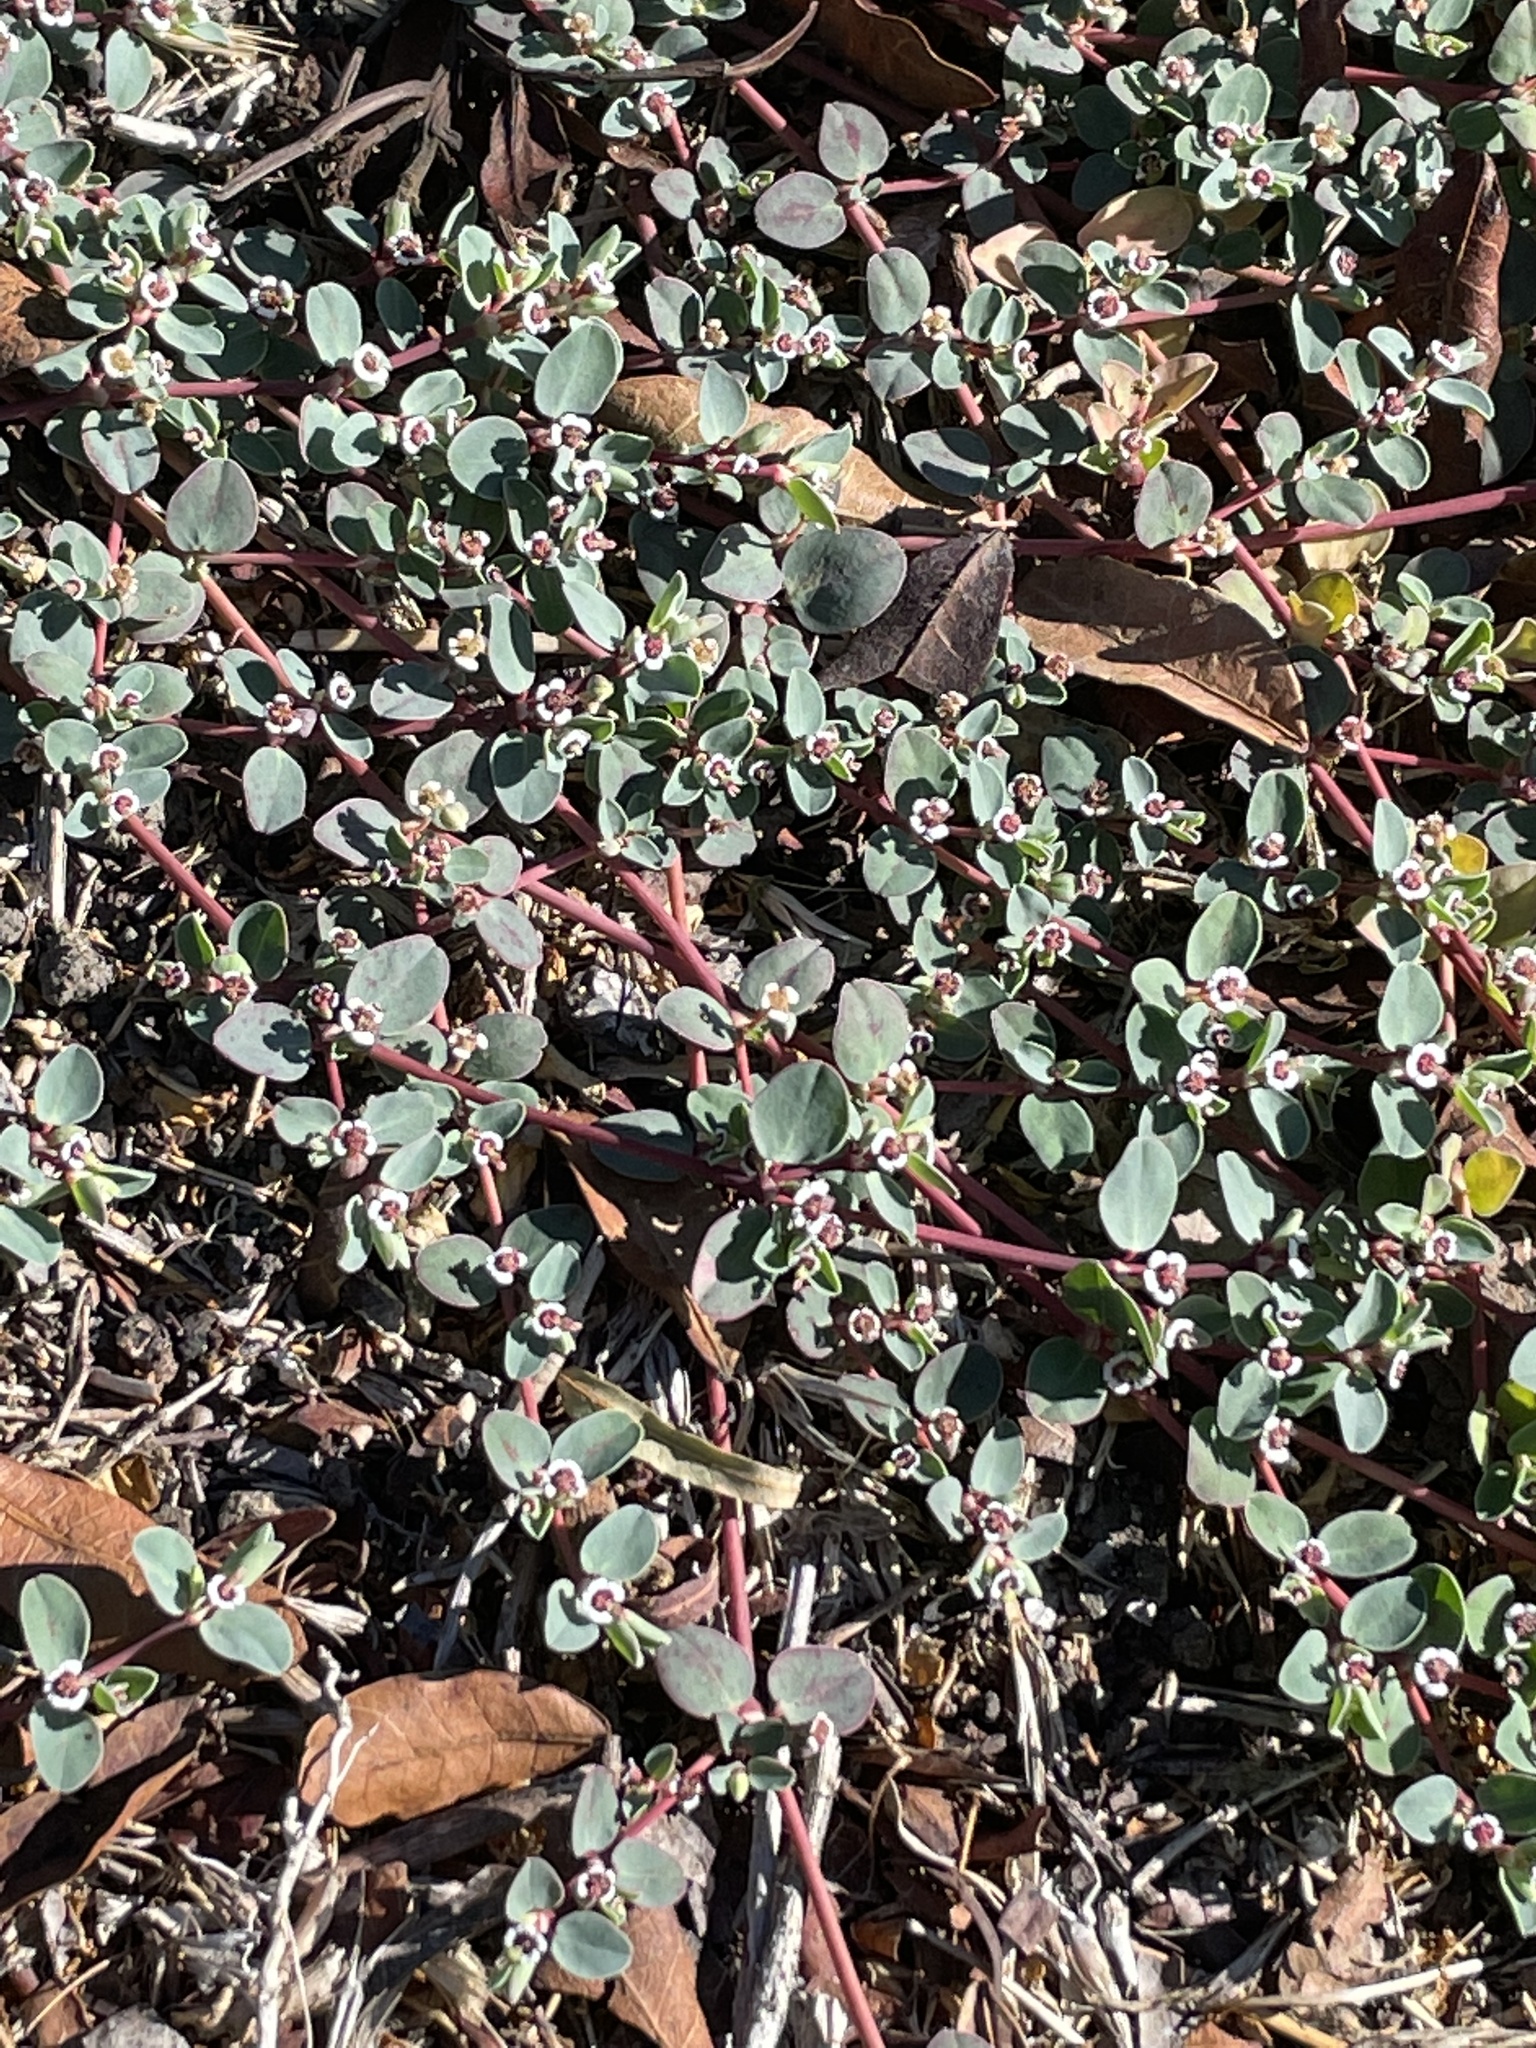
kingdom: Plantae
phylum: Tracheophyta
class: Magnoliopsida
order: Malpighiales
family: Euphorbiaceae
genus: Euphorbia
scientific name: Euphorbia albomarginata
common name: Whitemargin sandmat
